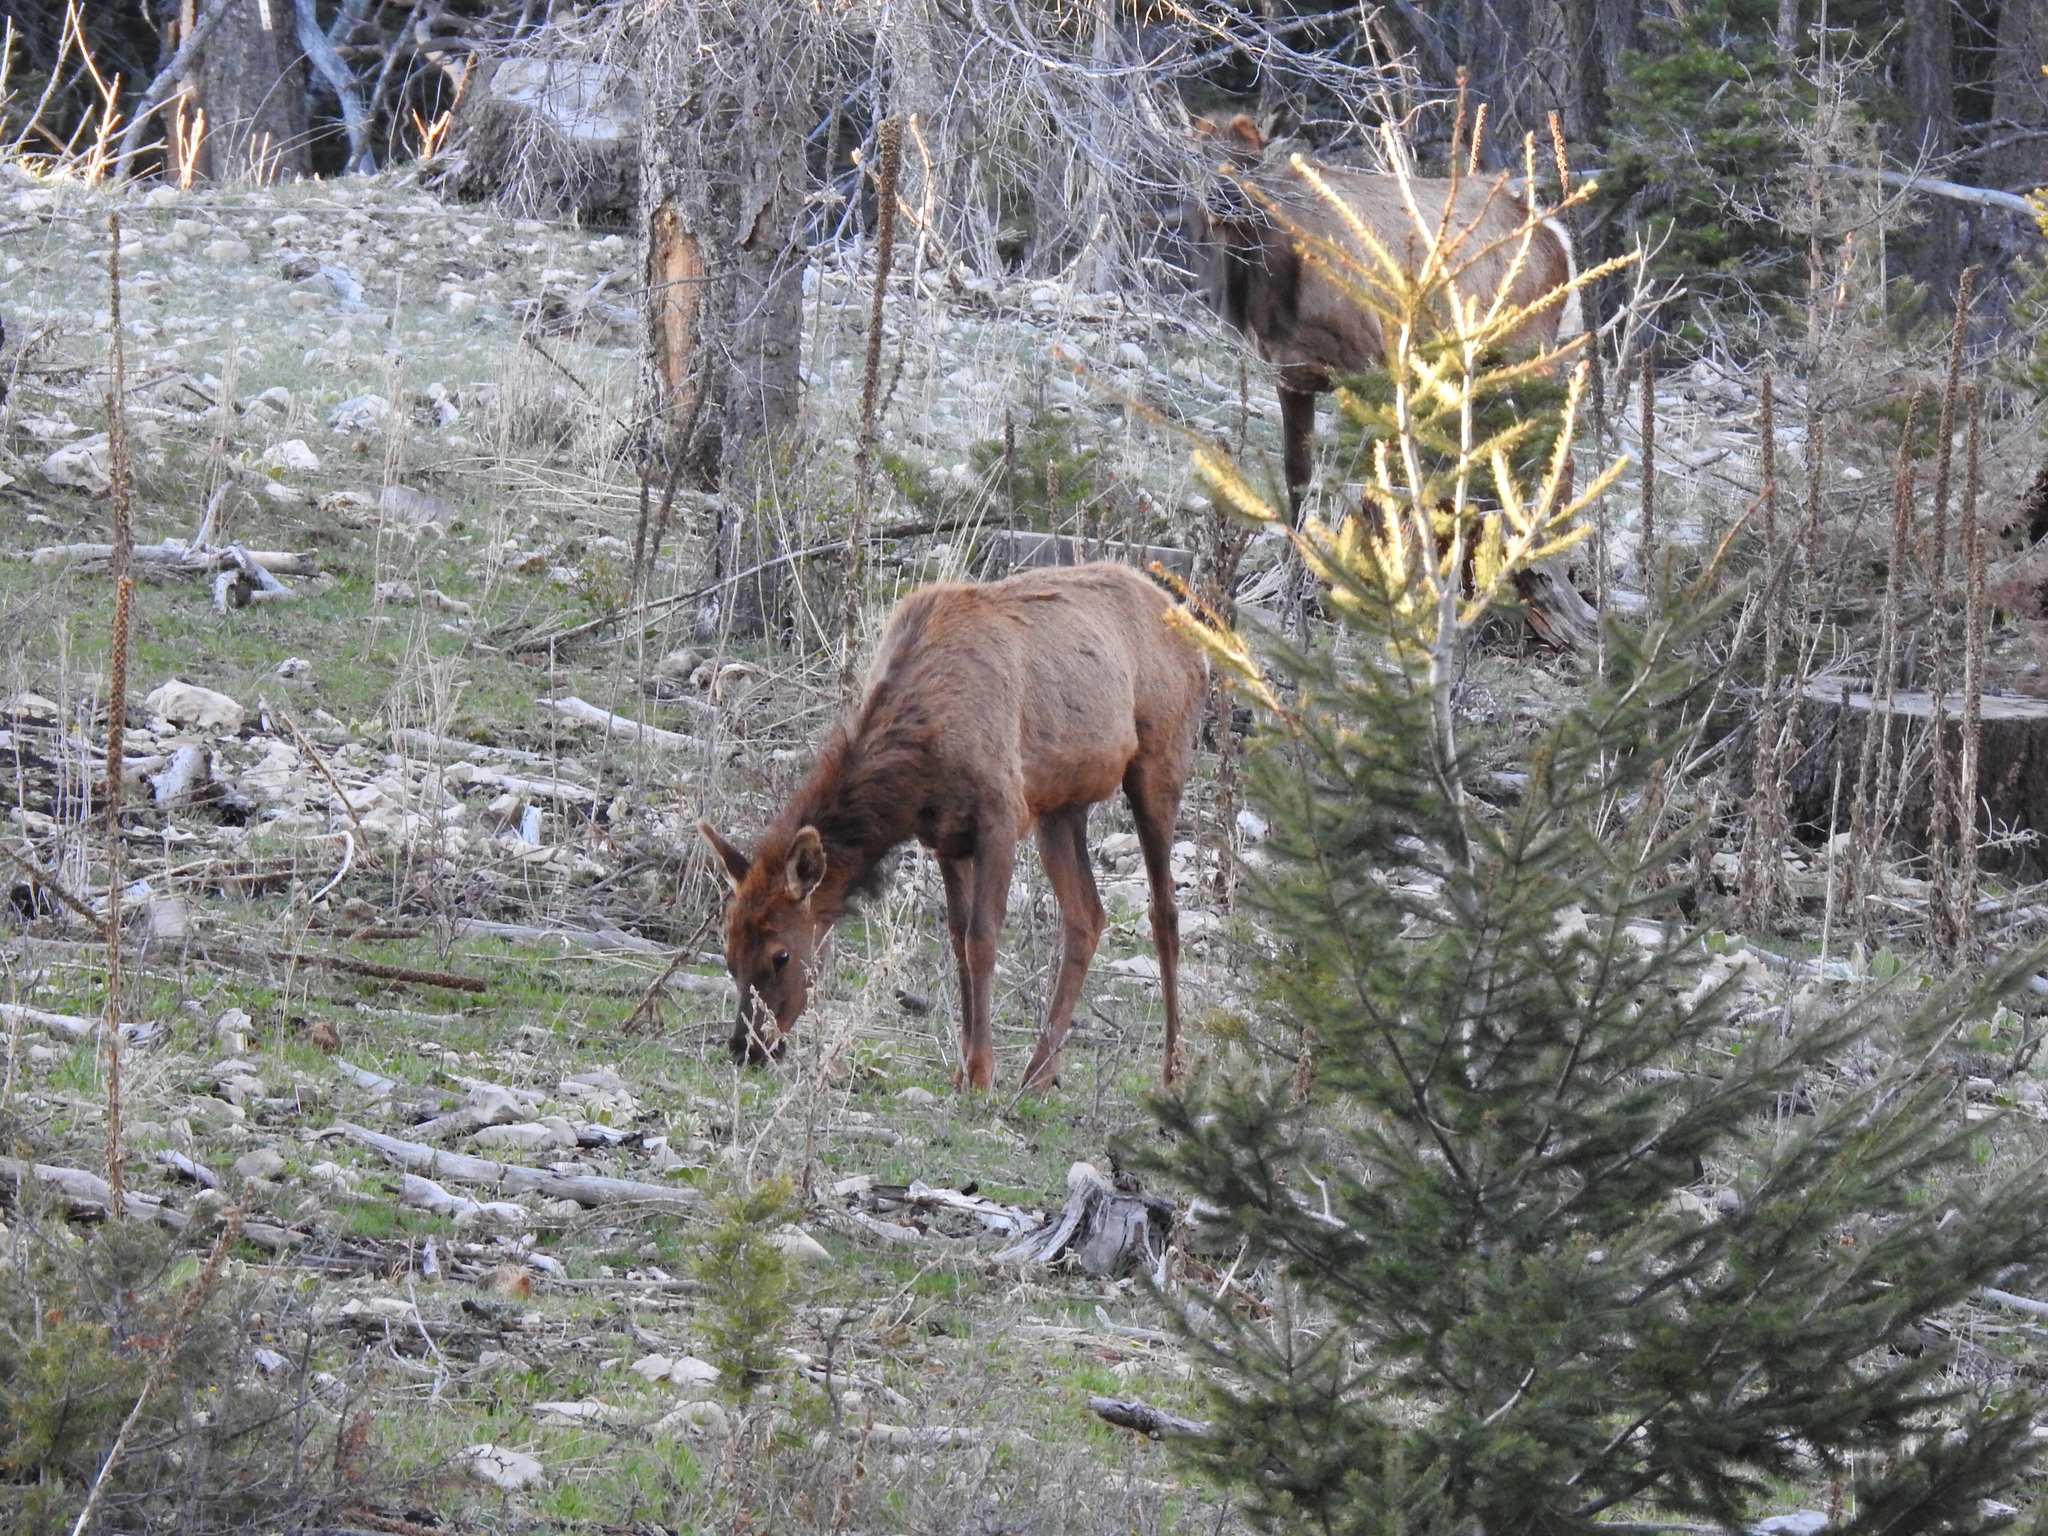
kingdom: Animalia
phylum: Chordata
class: Mammalia
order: Artiodactyla
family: Cervidae
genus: Cervus
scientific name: Cervus elaphus
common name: Red deer
